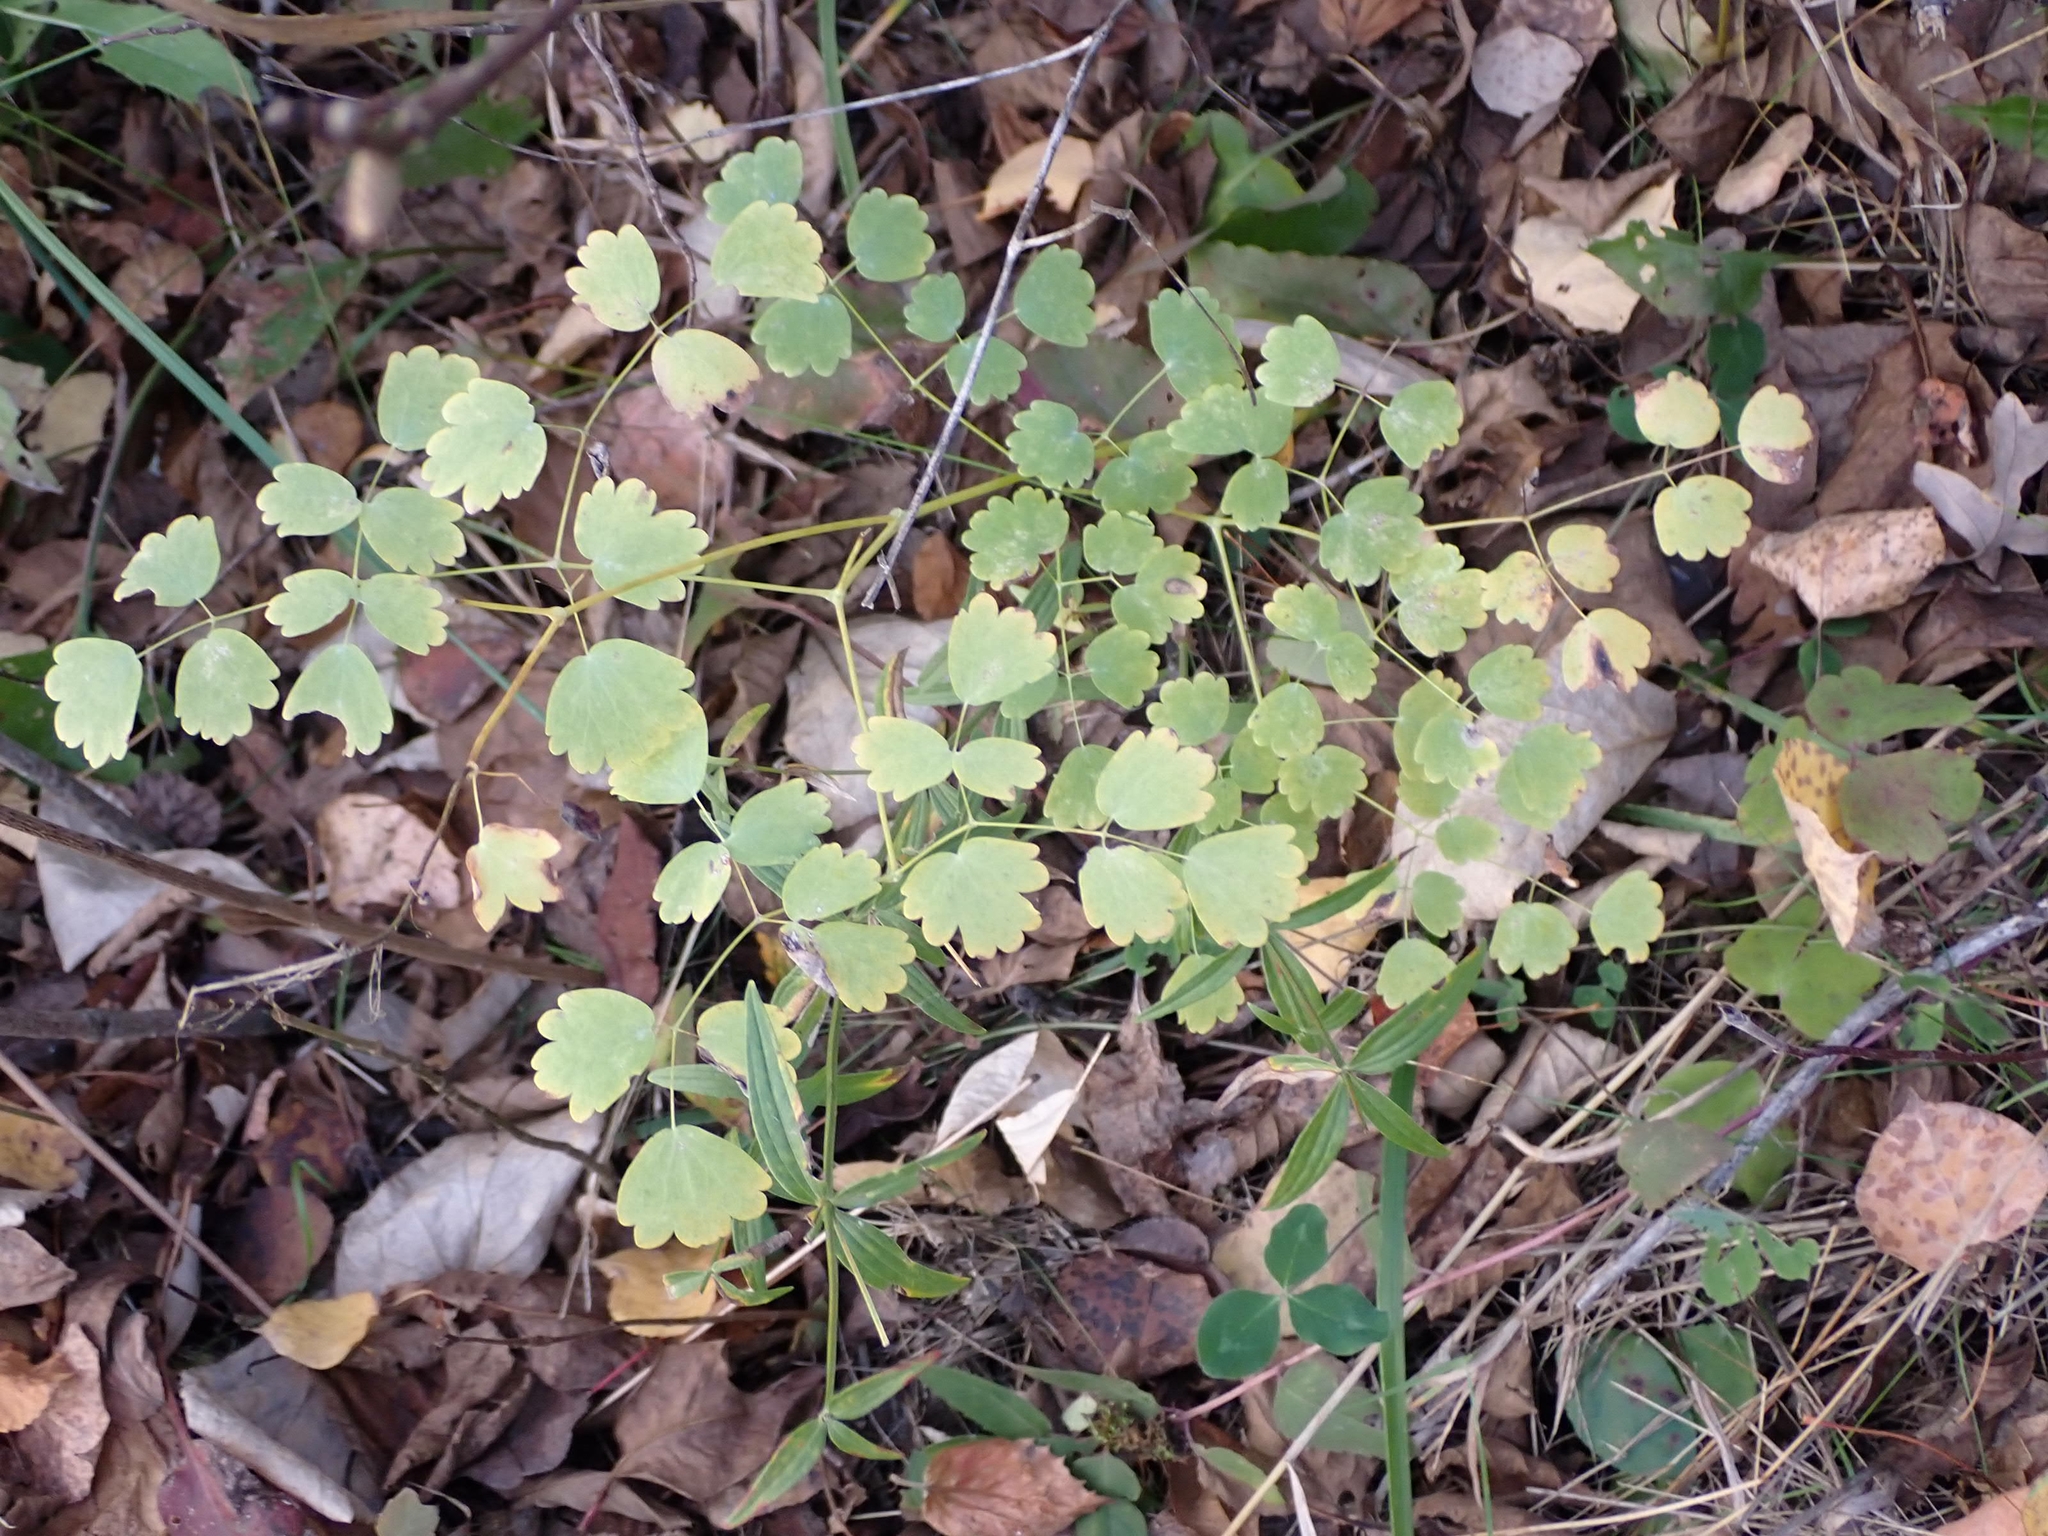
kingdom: Plantae
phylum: Tracheophyta
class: Magnoliopsida
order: Ranunculales
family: Ranunculaceae
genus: Thalictrum
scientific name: Thalictrum venulosum
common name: Early meadow-rue
